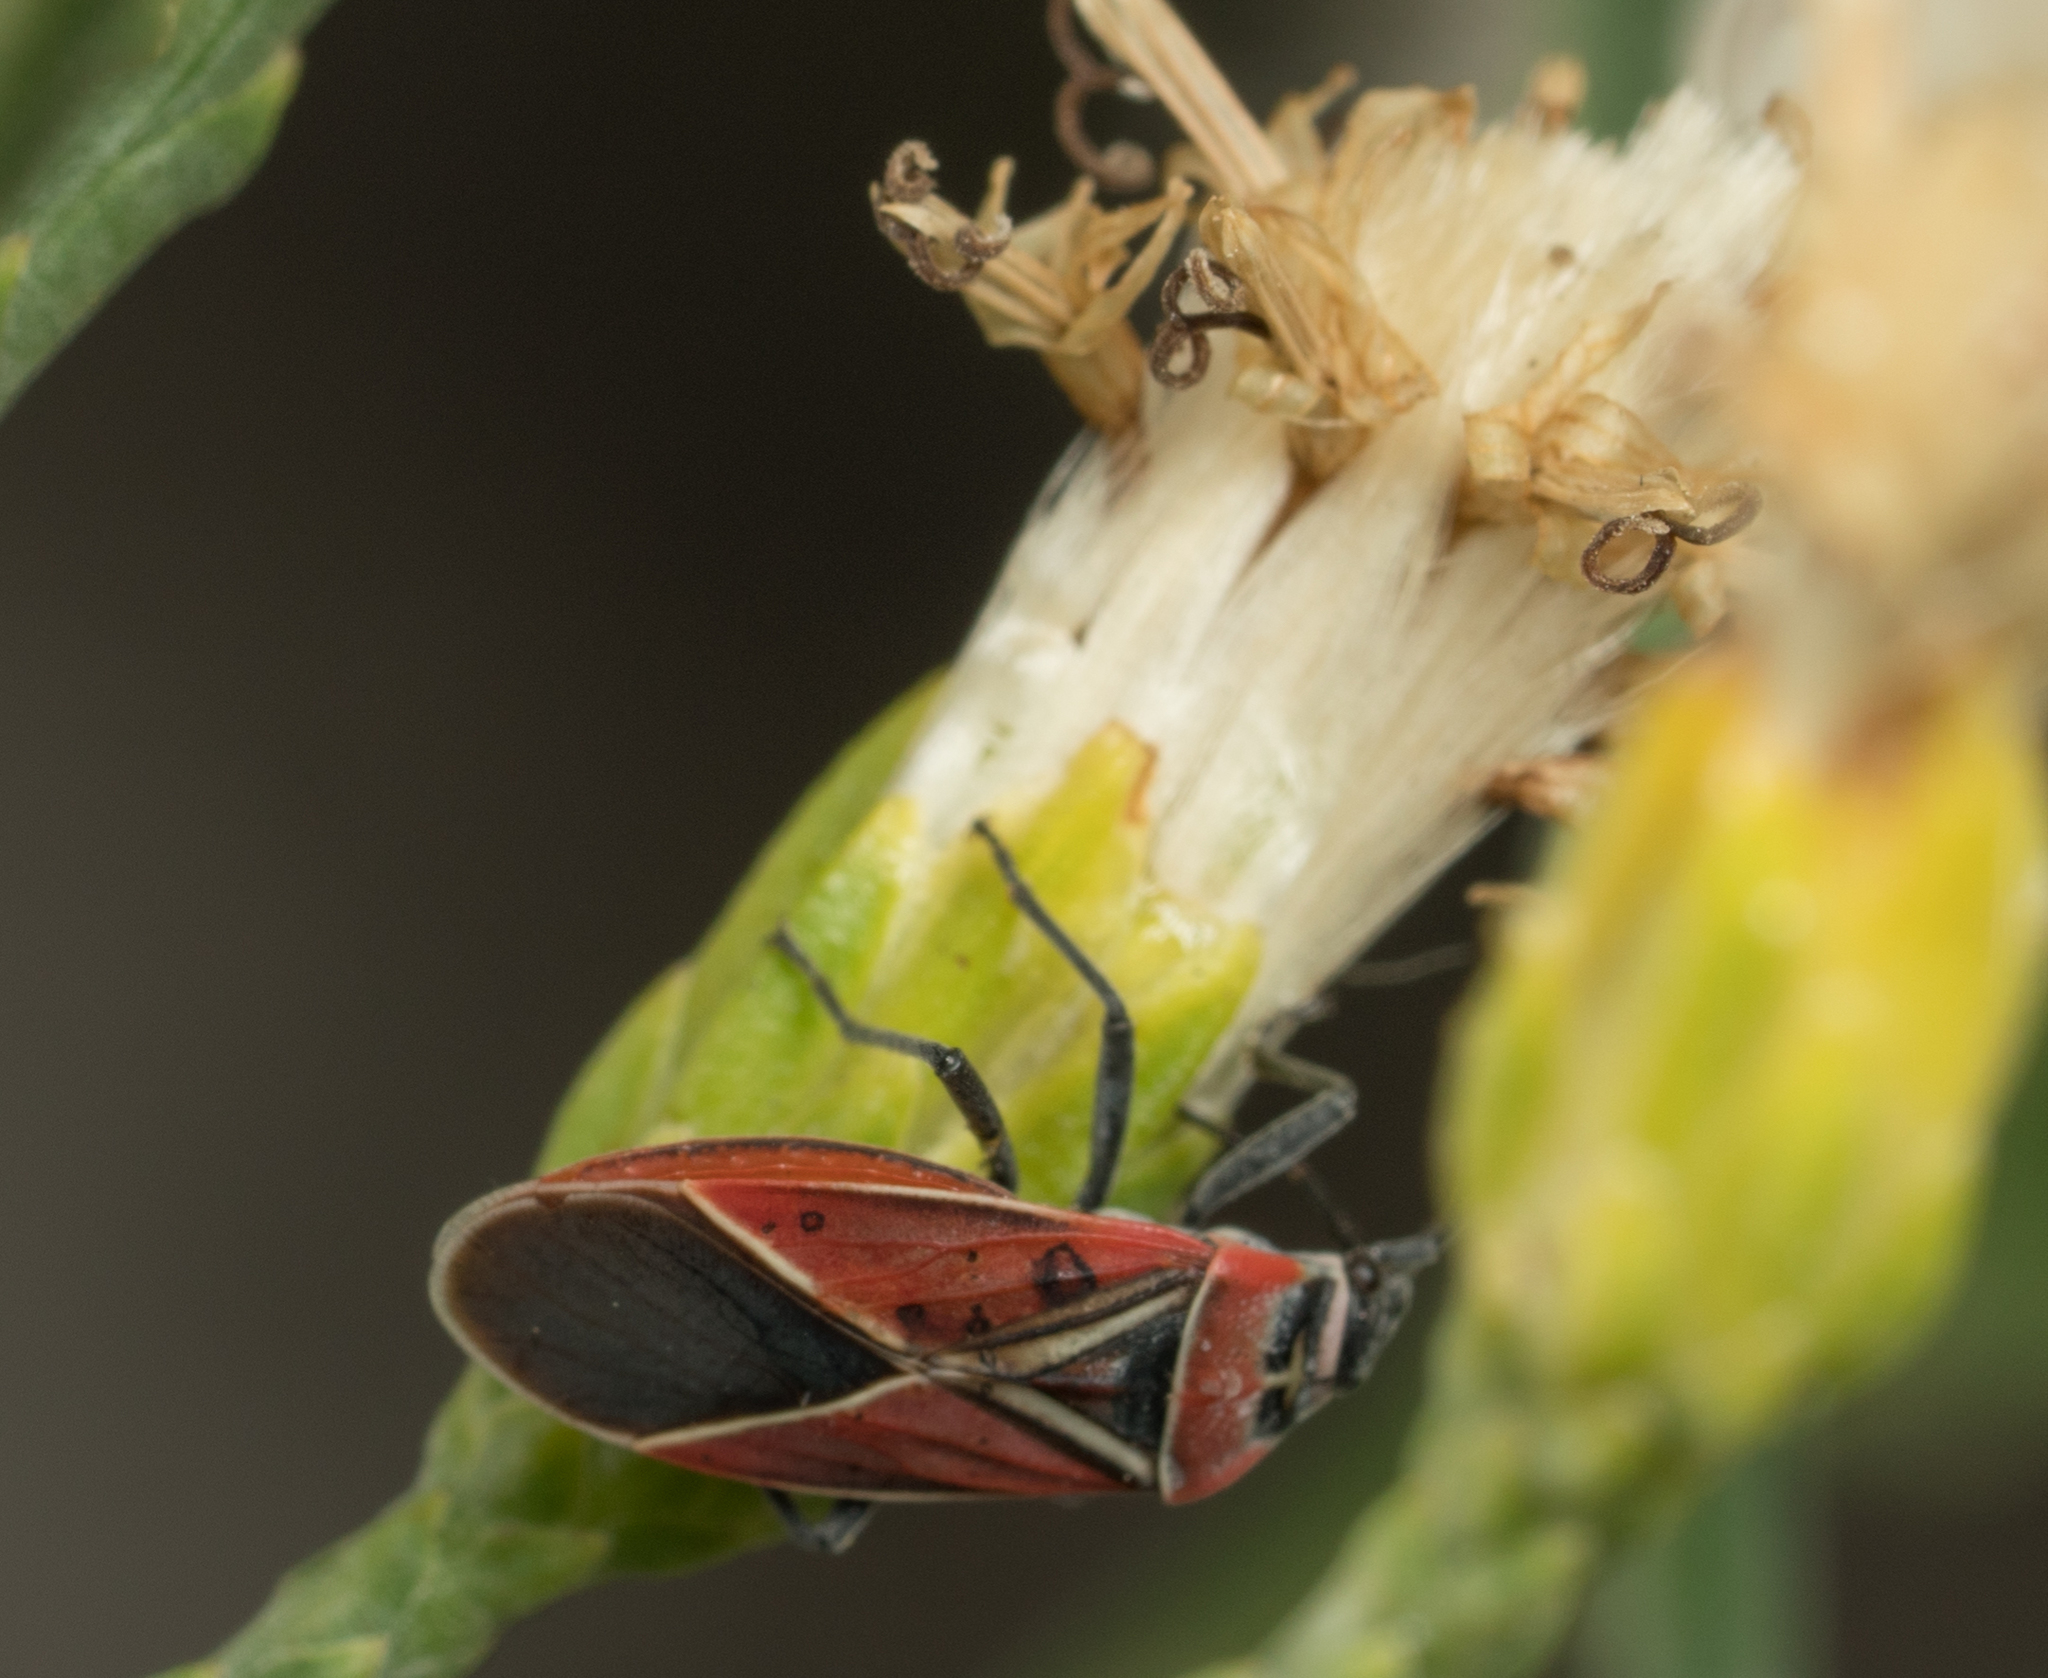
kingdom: Animalia
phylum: Arthropoda
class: Insecta
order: Hemiptera
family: Lygaeidae
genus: Neacoryphus
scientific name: Neacoryphus bicrucis
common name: Lygaeid bug
